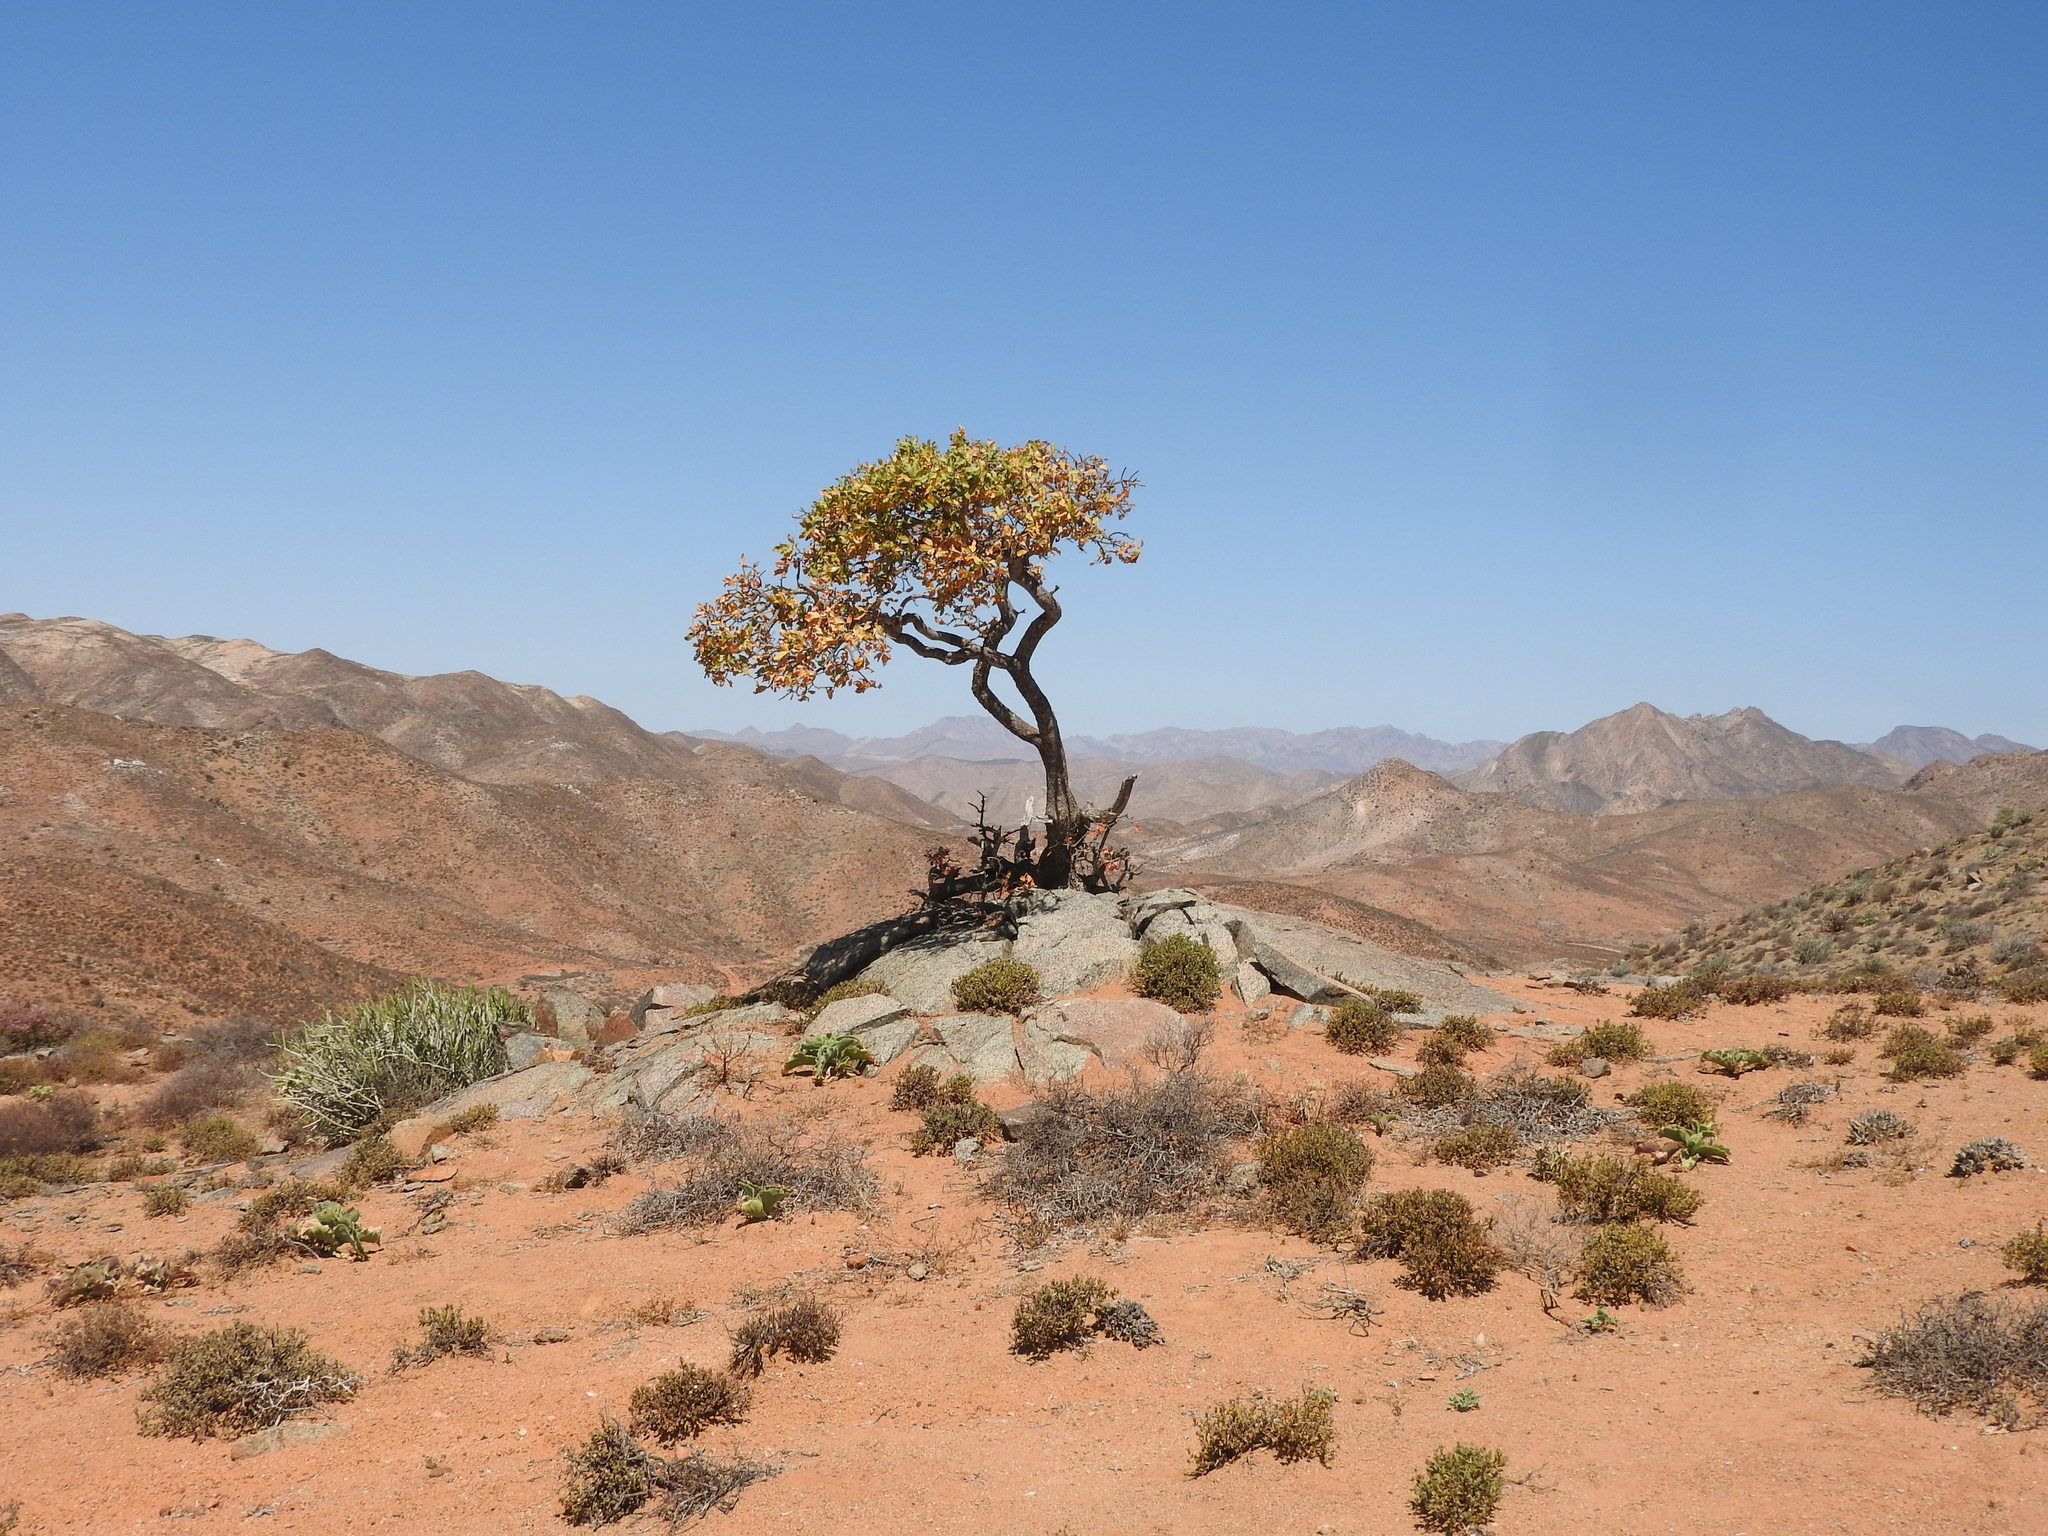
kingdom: Plantae
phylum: Tracheophyta
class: Magnoliopsida
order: Sapindales
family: Anacardiaceae
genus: Ozoroa
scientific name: Ozoroa dispar
